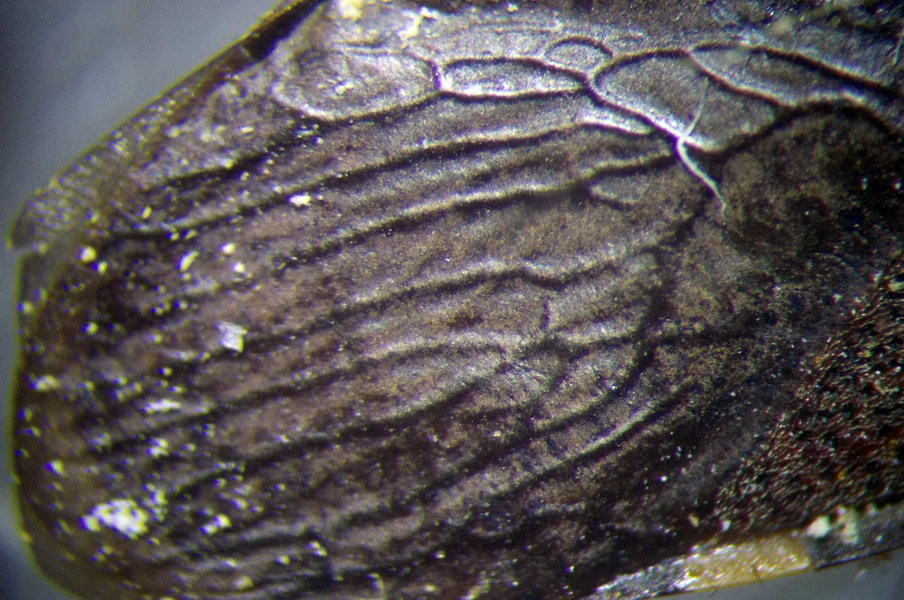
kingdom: Animalia
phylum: Arthropoda
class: Insecta
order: Hemiptera
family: Stenocephalidae
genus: Dicranocephalus
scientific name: Dicranocephalus albipes
